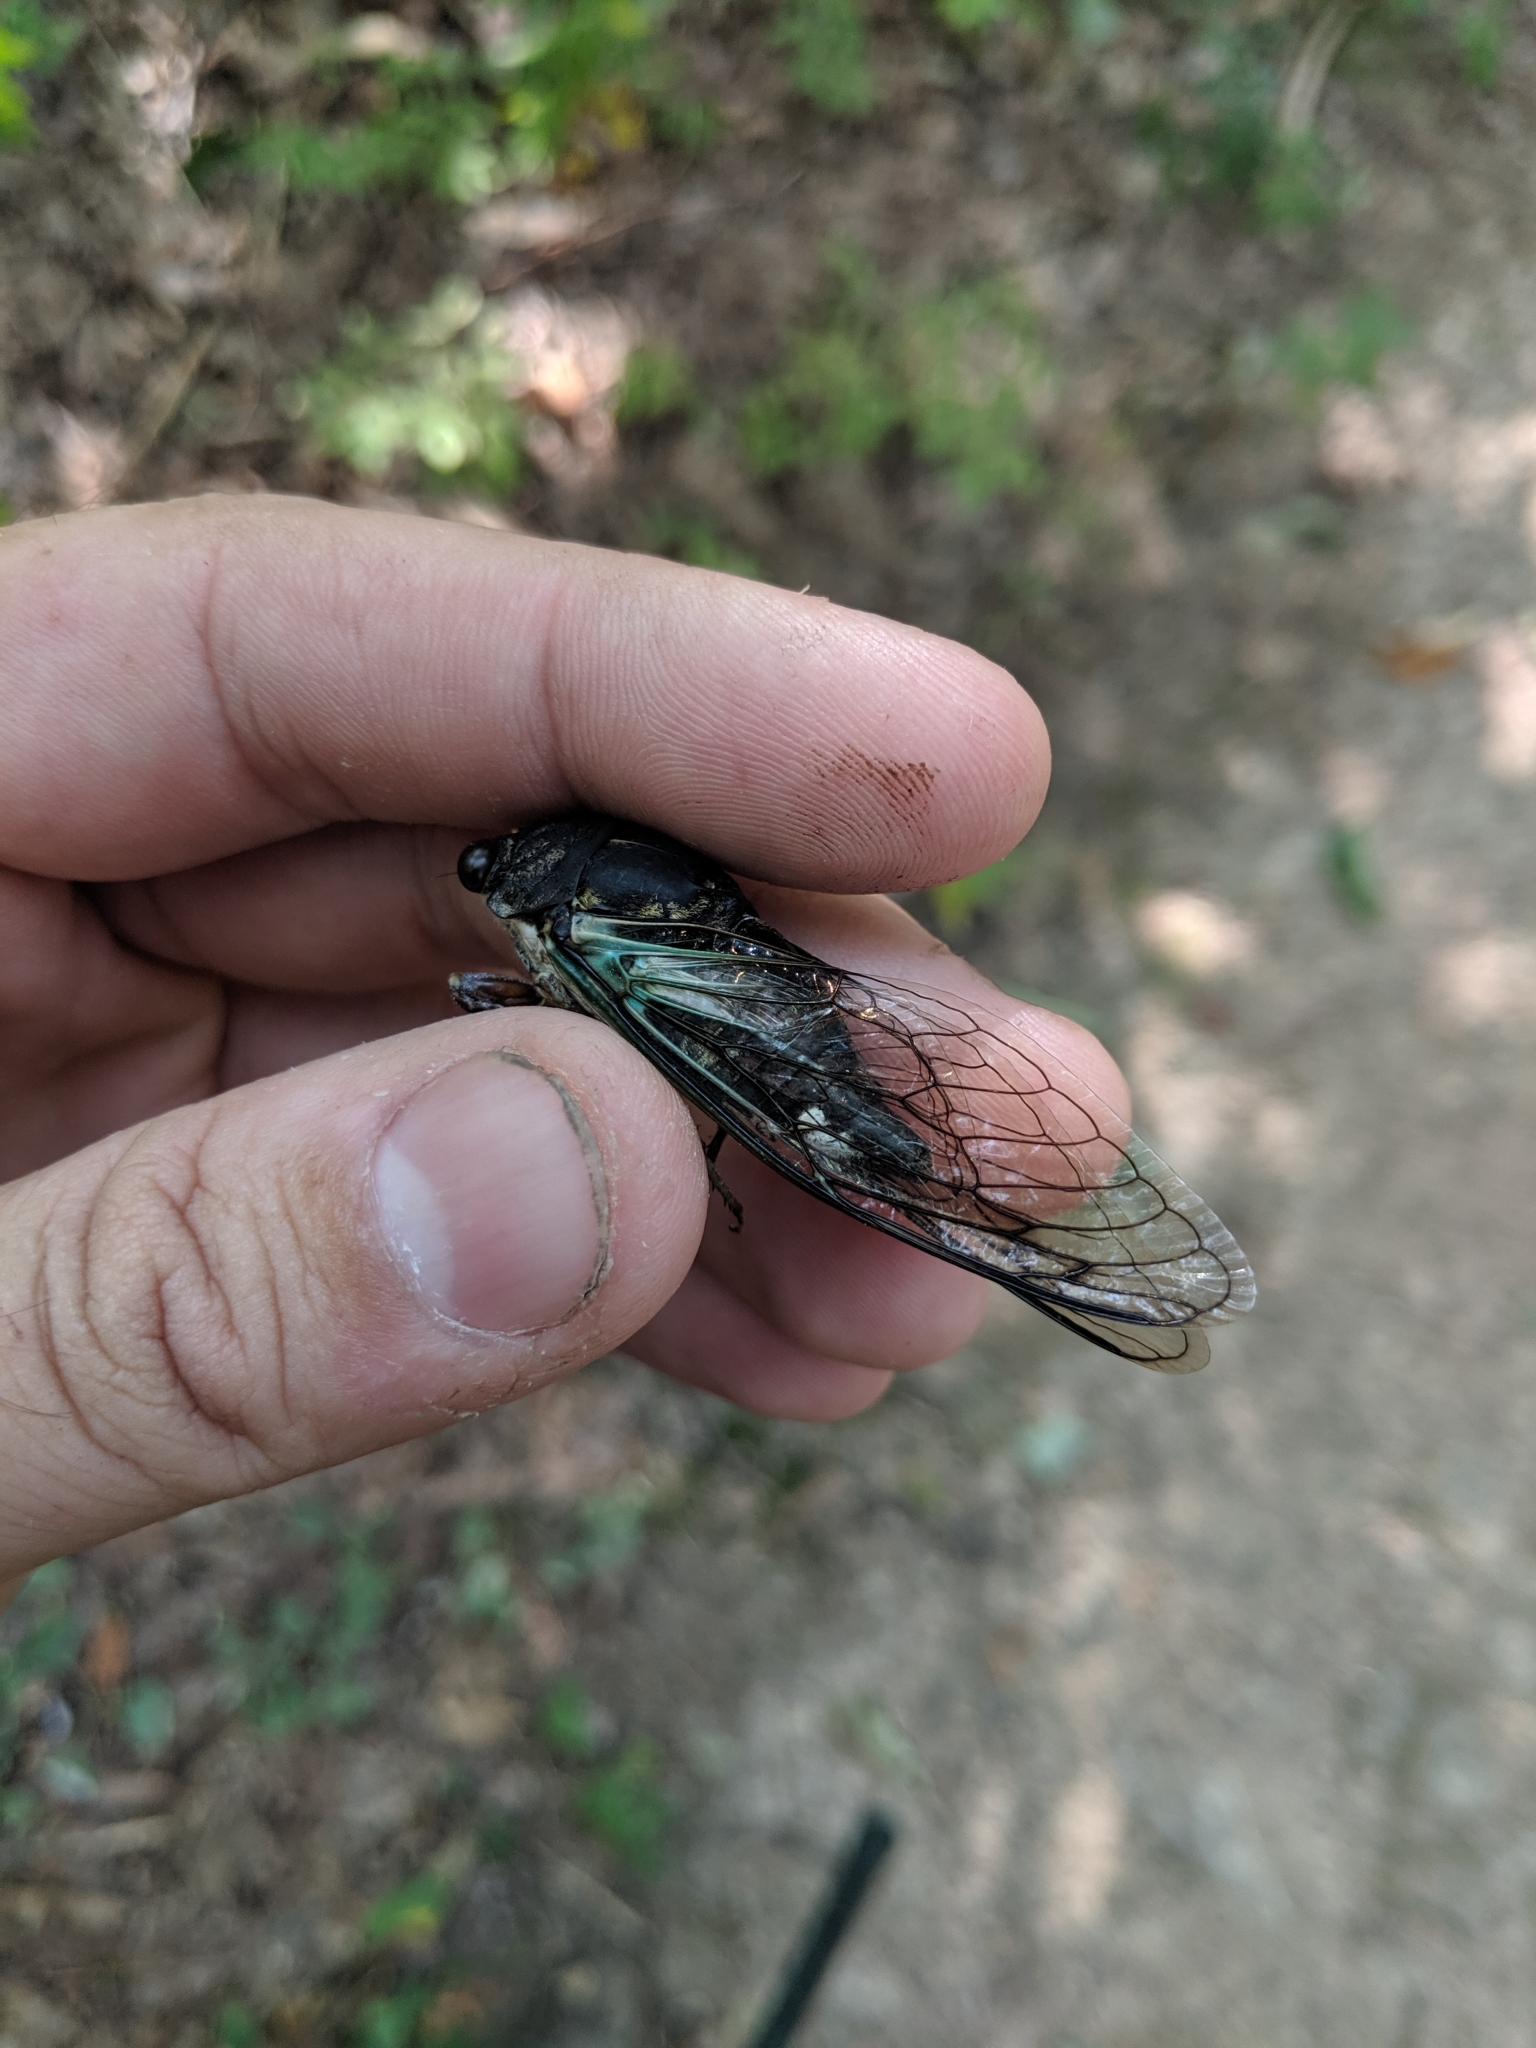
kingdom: Animalia
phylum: Arthropoda
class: Insecta
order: Hemiptera
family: Cicadidae
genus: Neotibicen
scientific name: Neotibicen lyricen
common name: Lyric cicada
